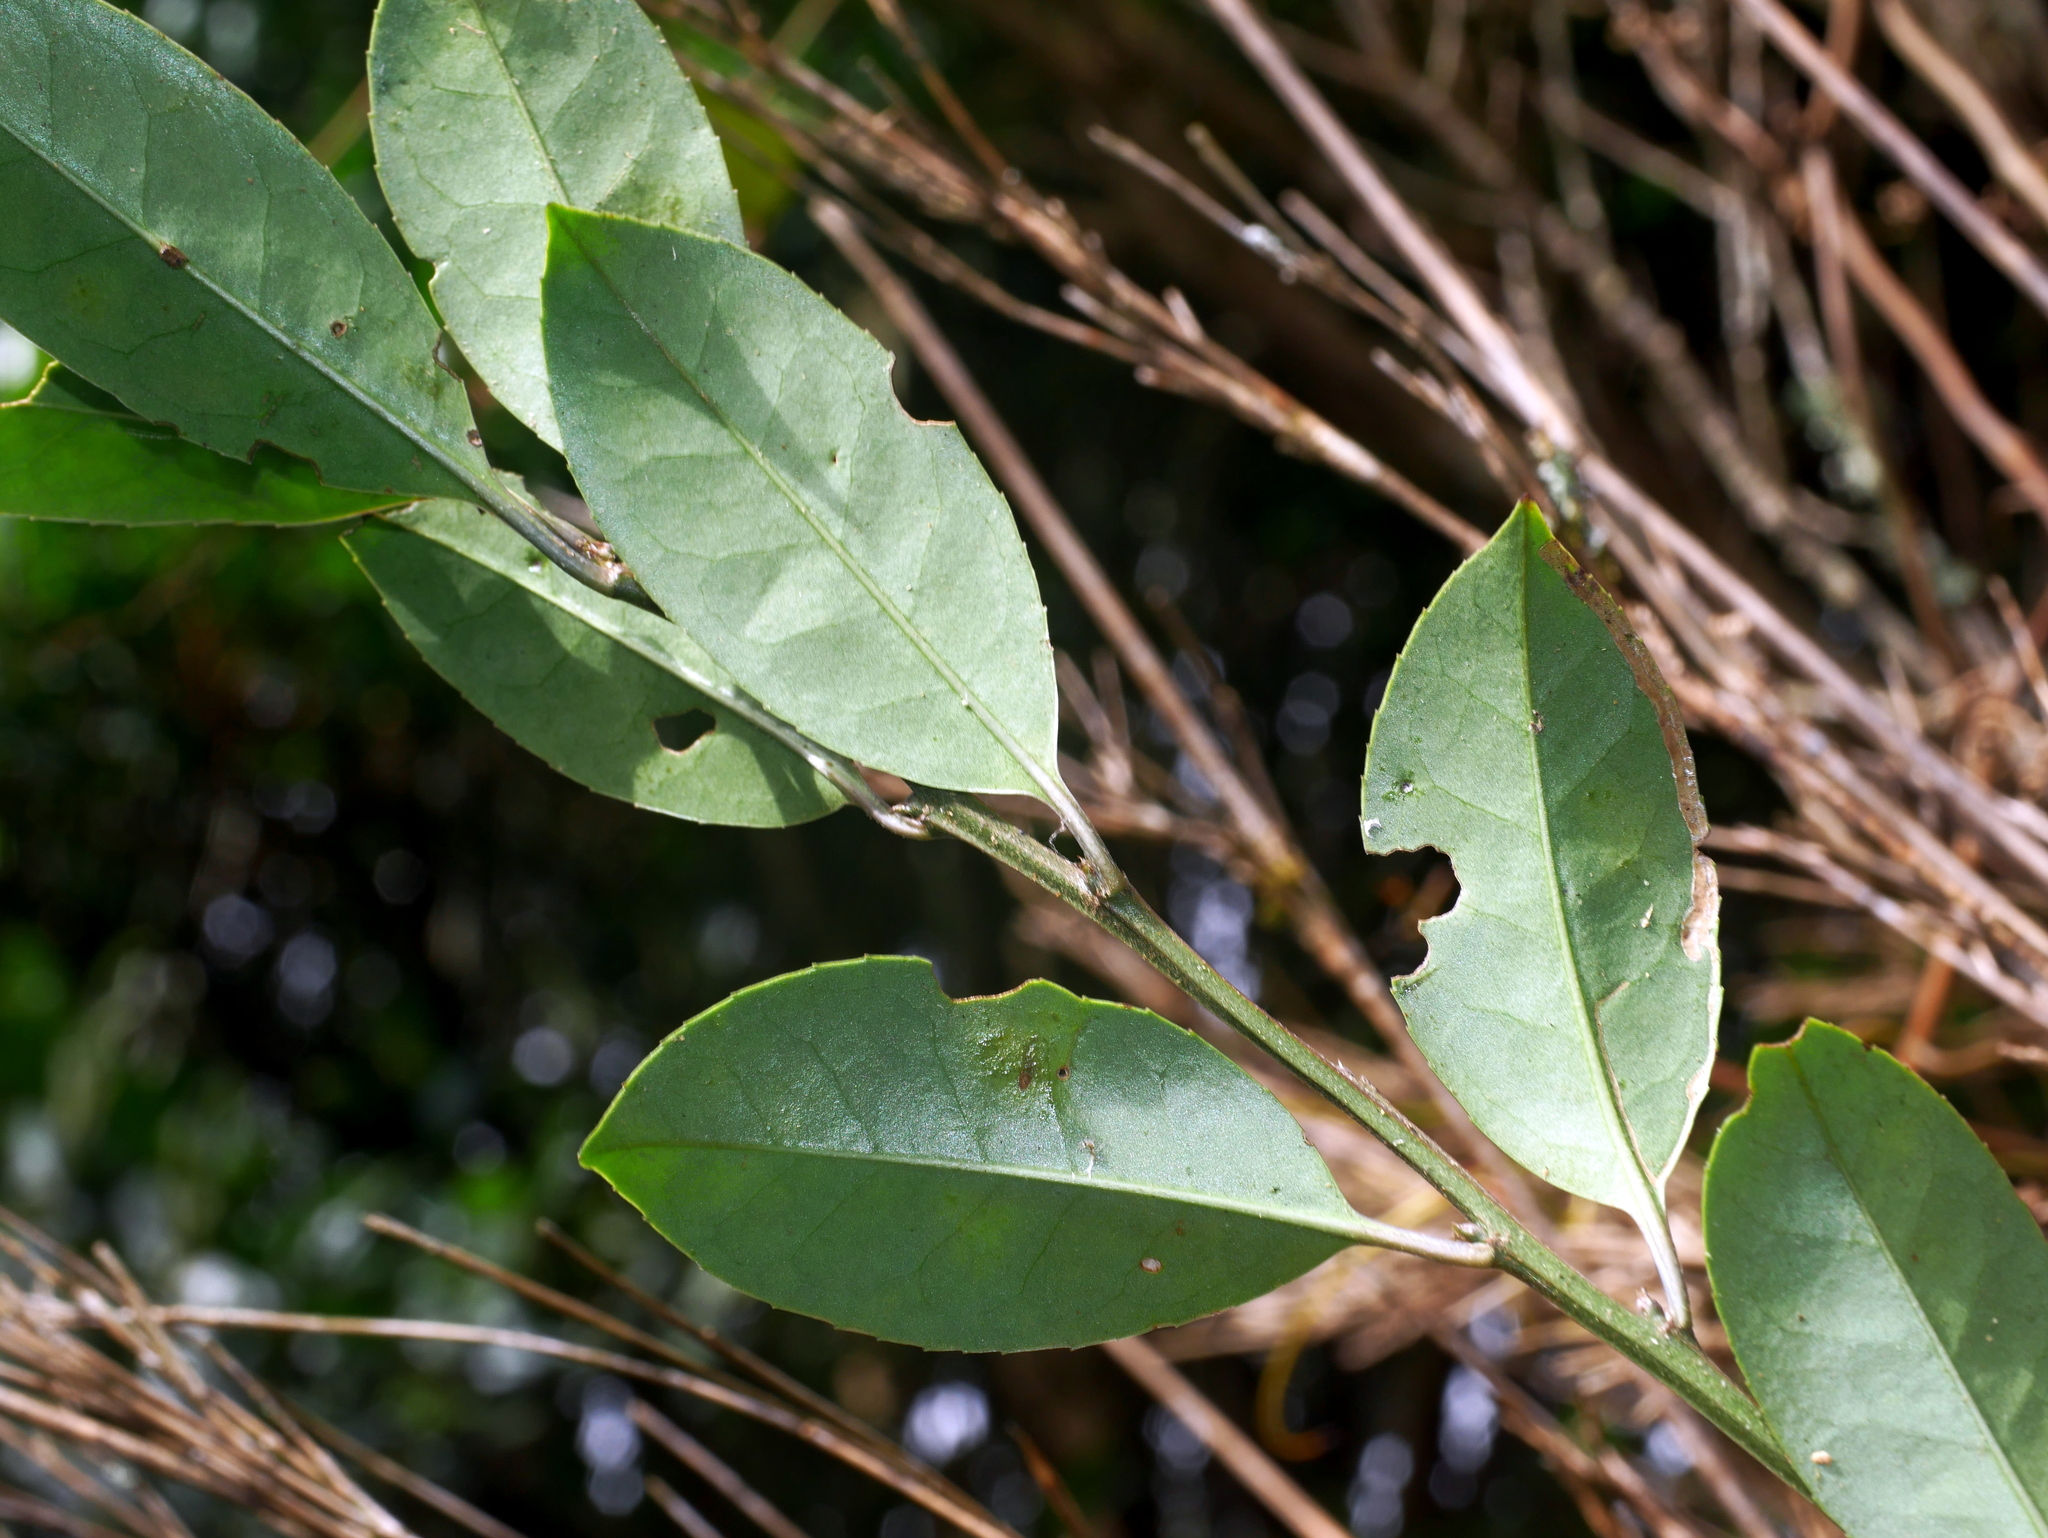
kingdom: Plantae
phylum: Tracheophyta
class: Magnoliopsida
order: Aquifoliales
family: Aquifoliaceae
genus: Ilex
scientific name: Ilex rotunda
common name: Kurogane holly
